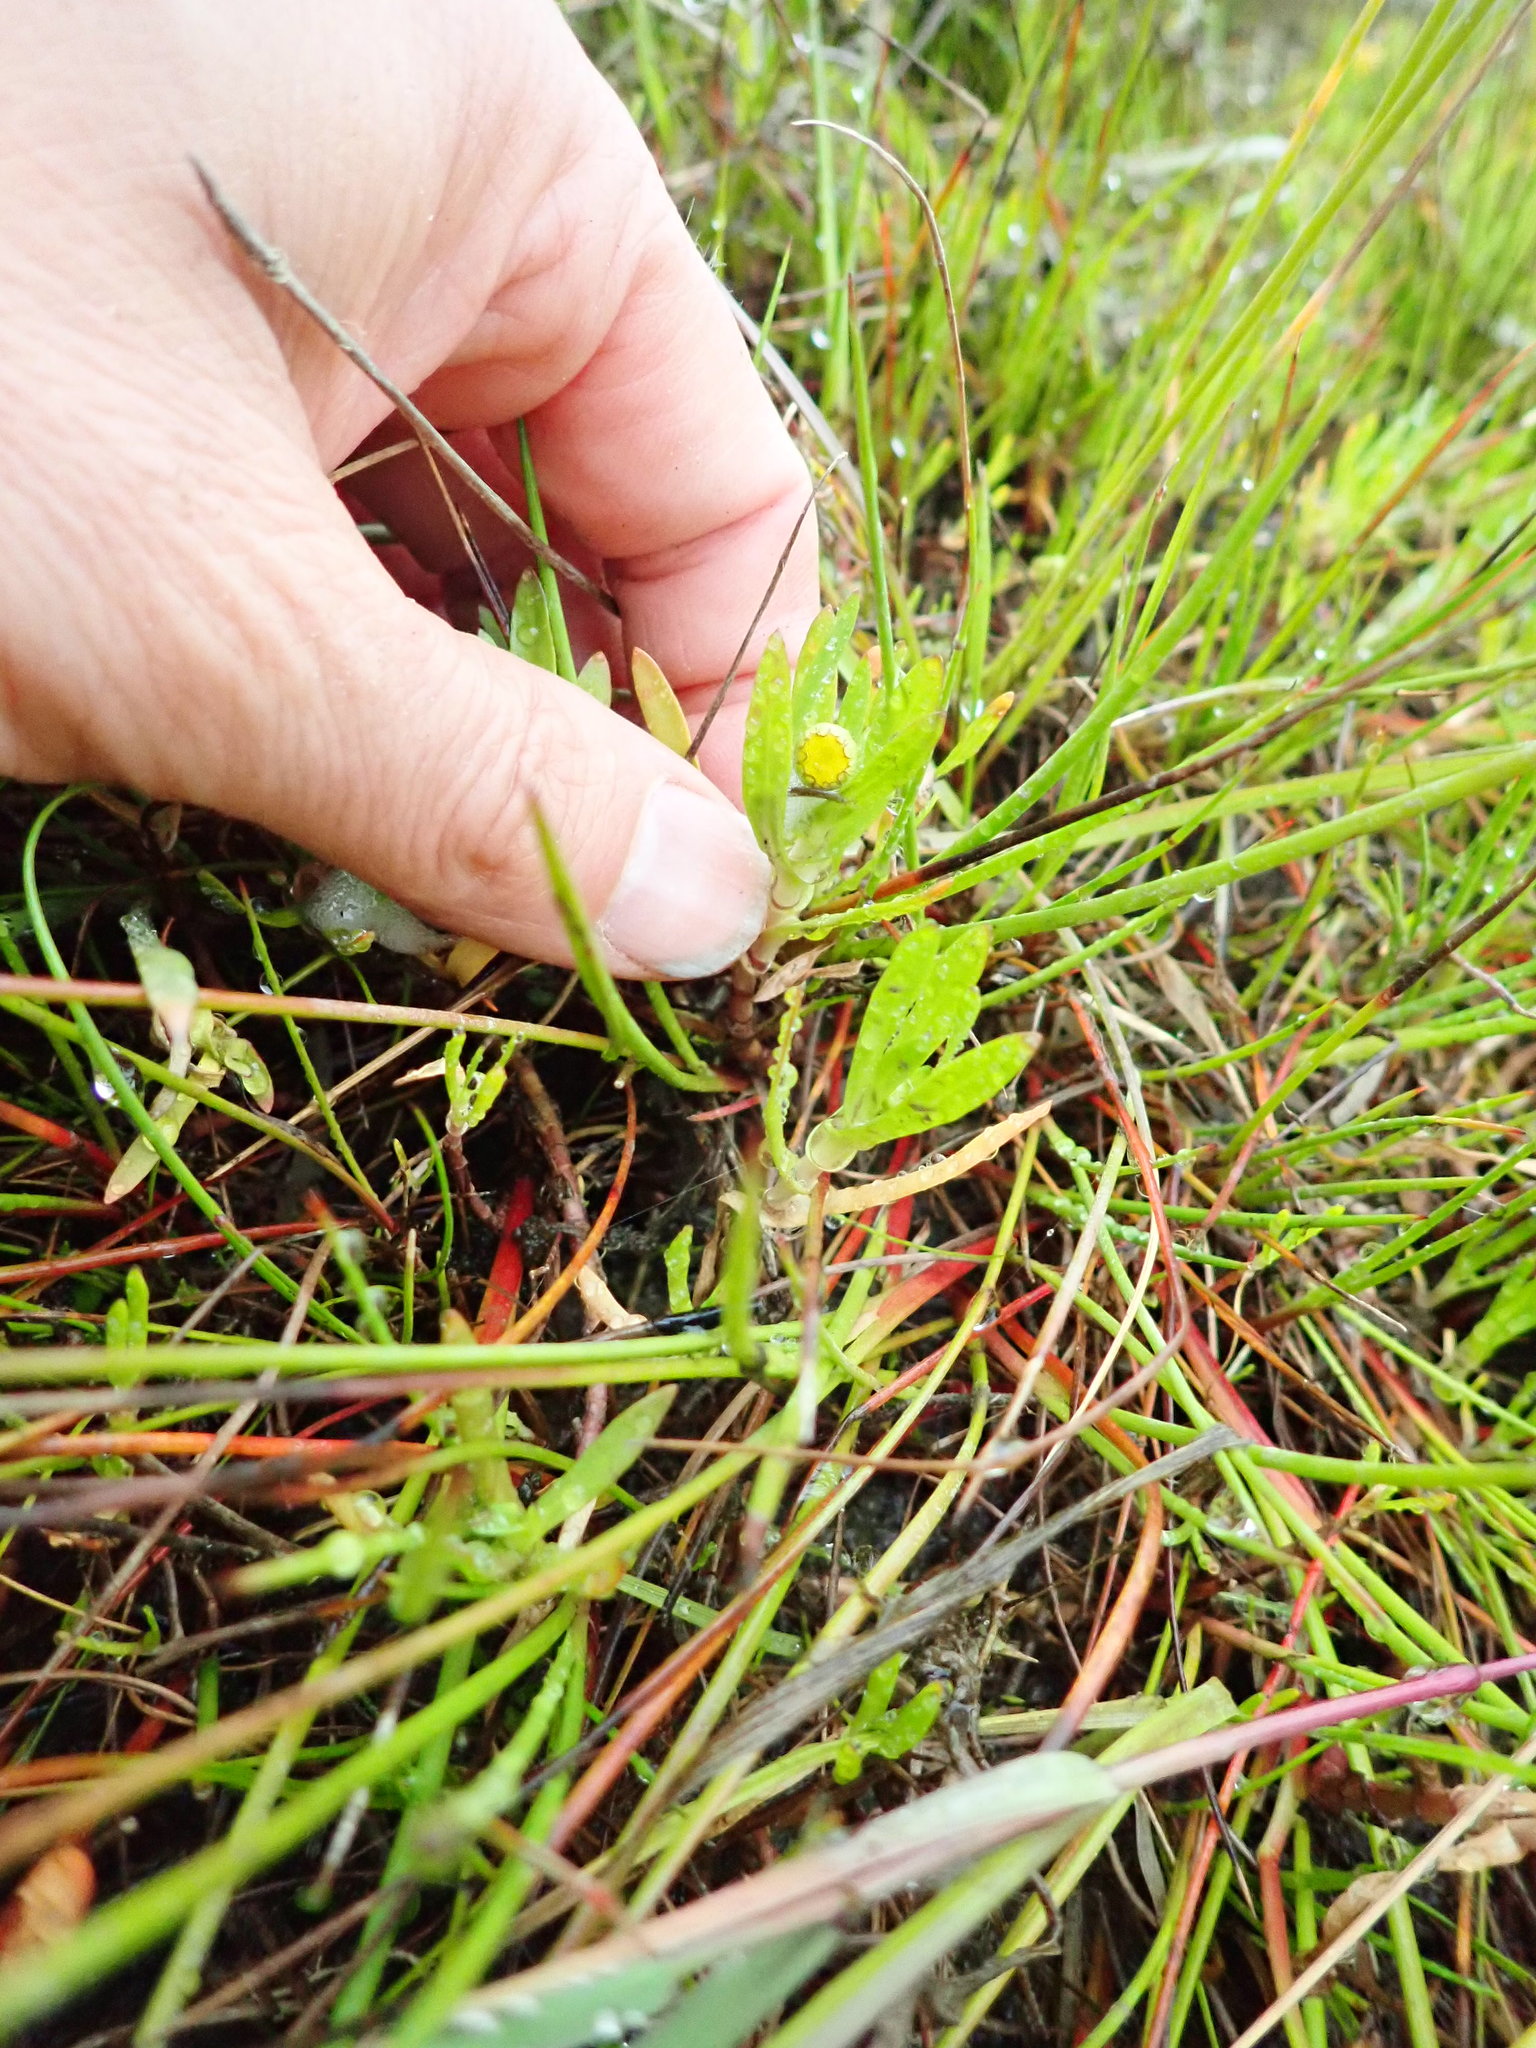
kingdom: Plantae
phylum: Tracheophyta
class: Magnoliopsida
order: Asterales
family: Asteraceae
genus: Cotula
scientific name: Cotula coronopifolia
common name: Buttonweed
